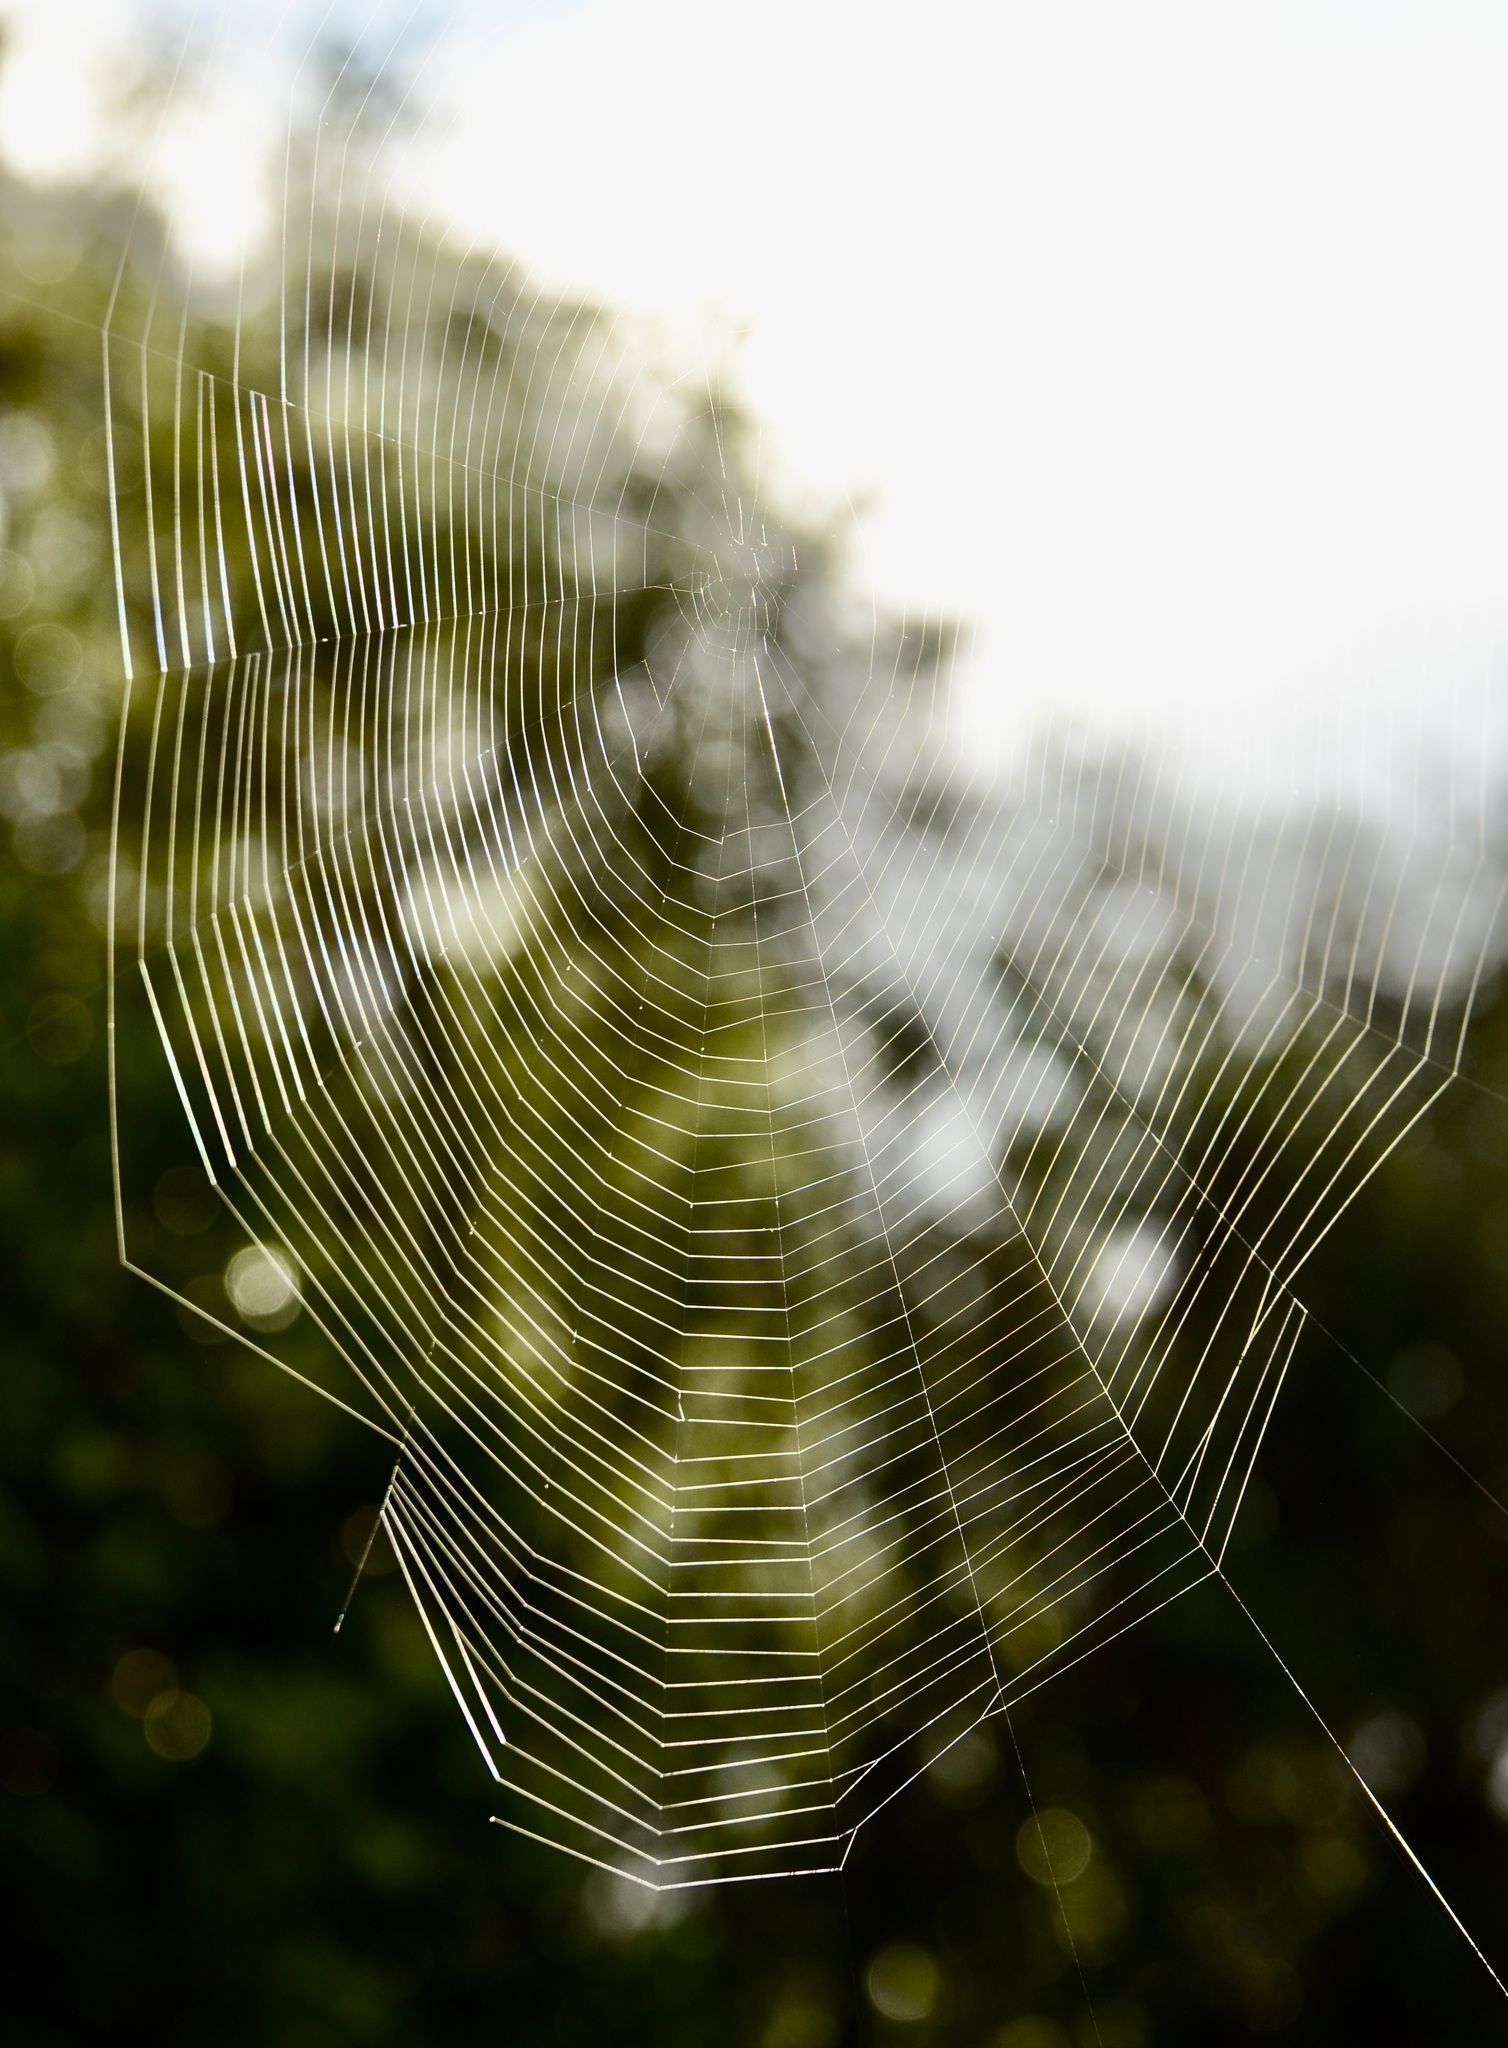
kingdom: Animalia
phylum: Arthropoda
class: Arachnida
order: Araneae
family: Araneidae
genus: Eriophora
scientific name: Eriophora pustulosa
